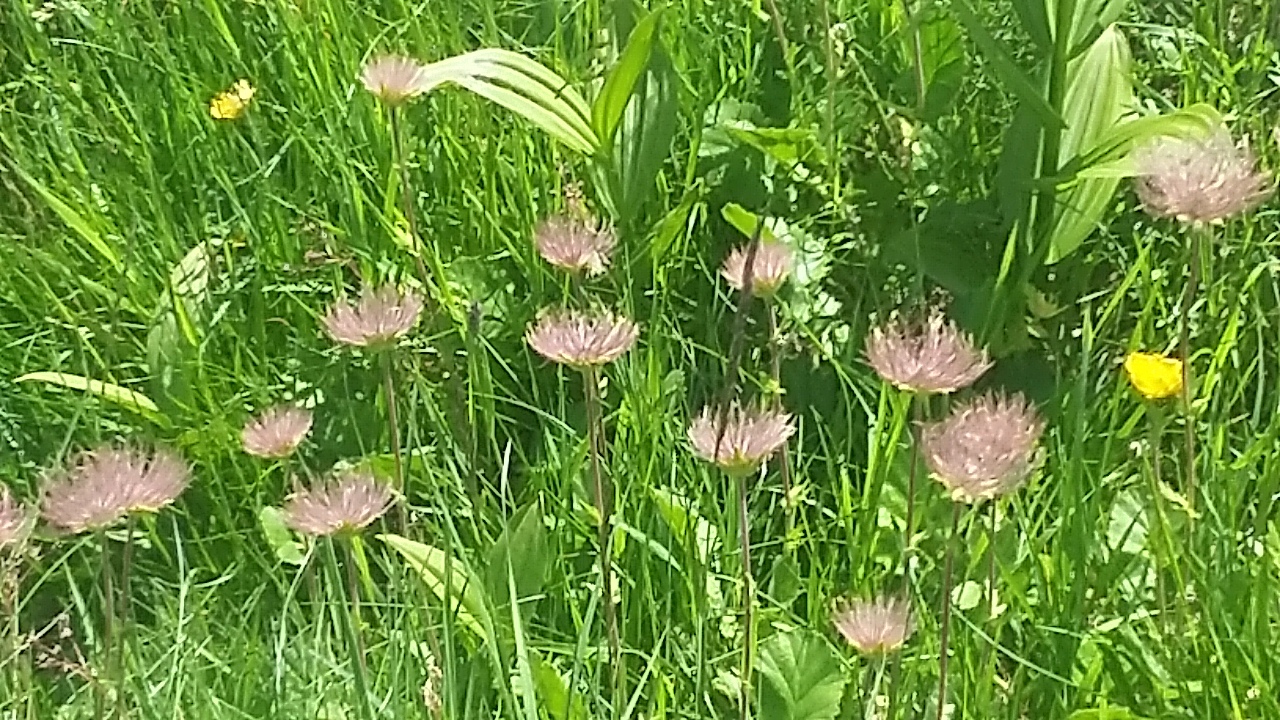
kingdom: Plantae
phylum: Tracheophyta
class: Magnoliopsida
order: Rosales
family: Rosaceae
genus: Geum
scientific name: Geum montanum
